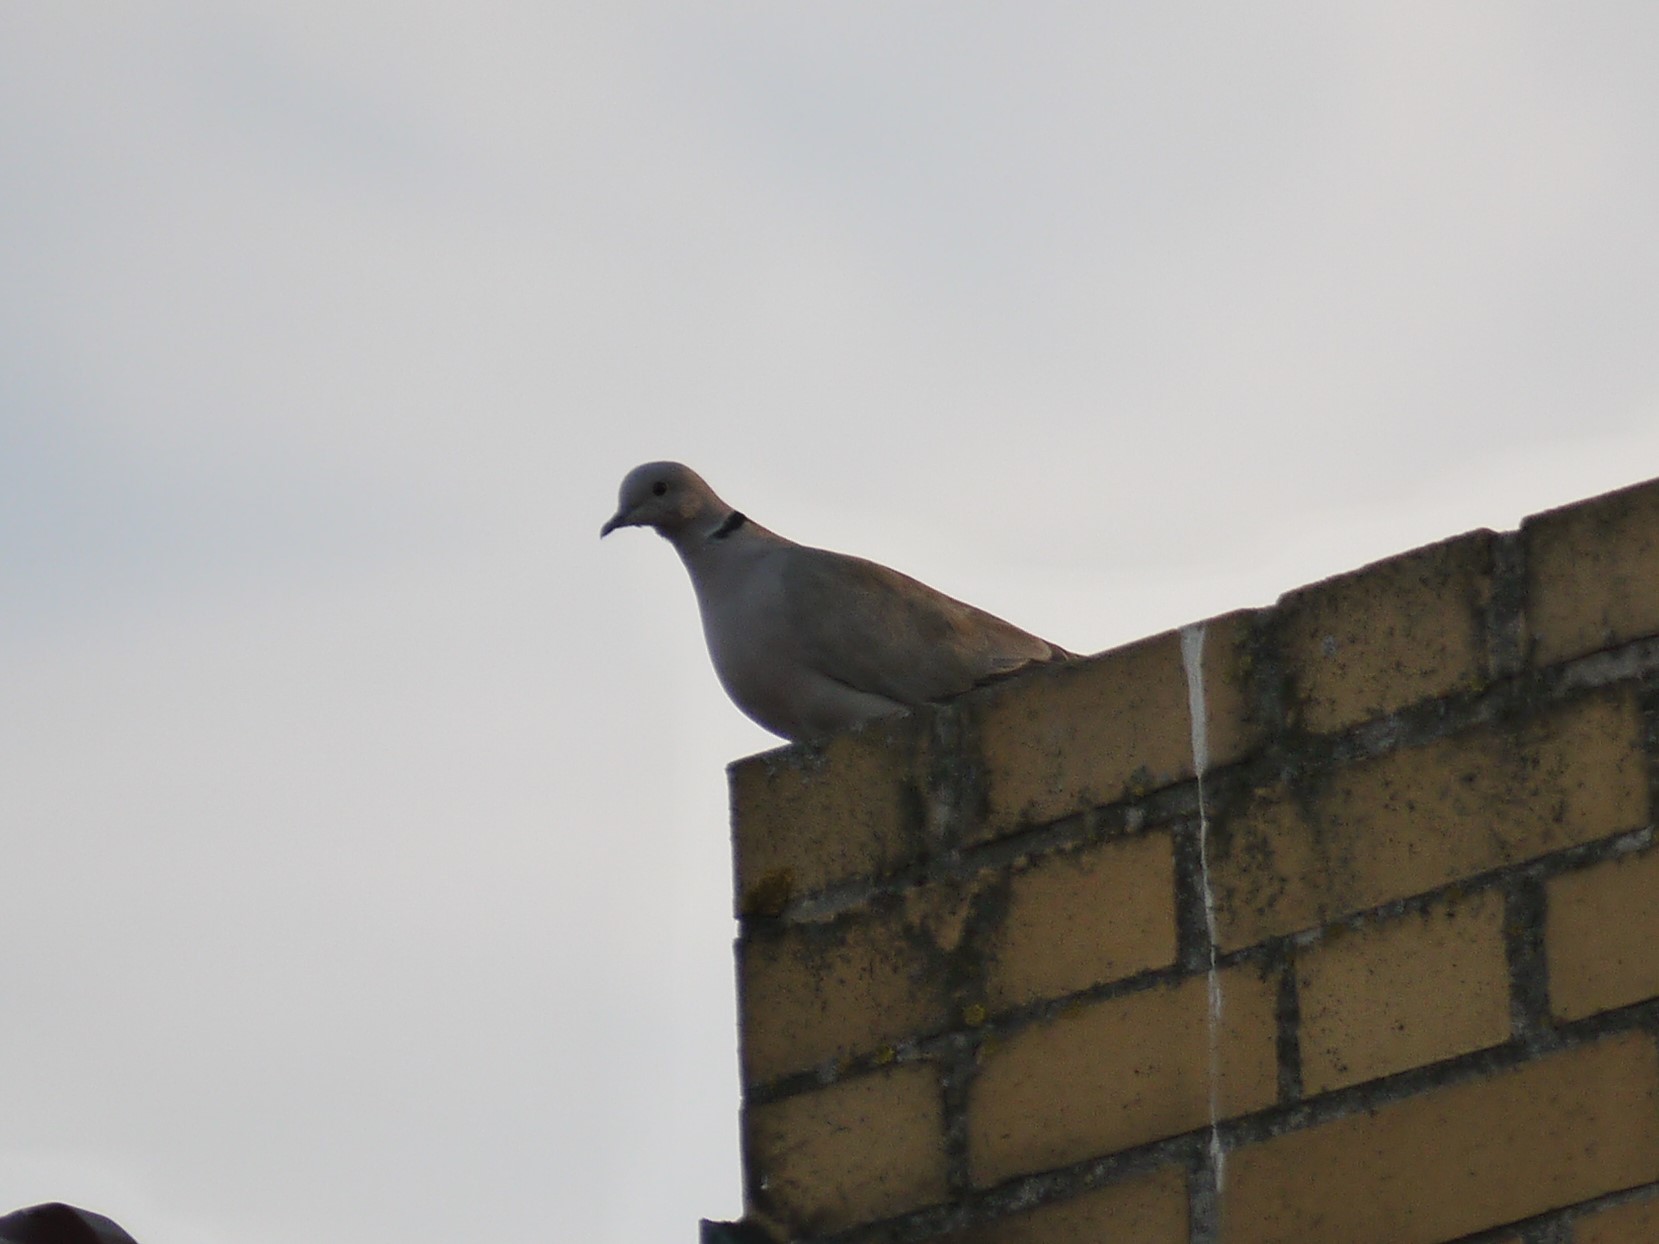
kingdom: Animalia
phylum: Chordata
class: Aves
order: Columbiformes
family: Columbidae
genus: Streptopelia
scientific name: Streptopelia decaocto
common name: Eurasian collared dove
